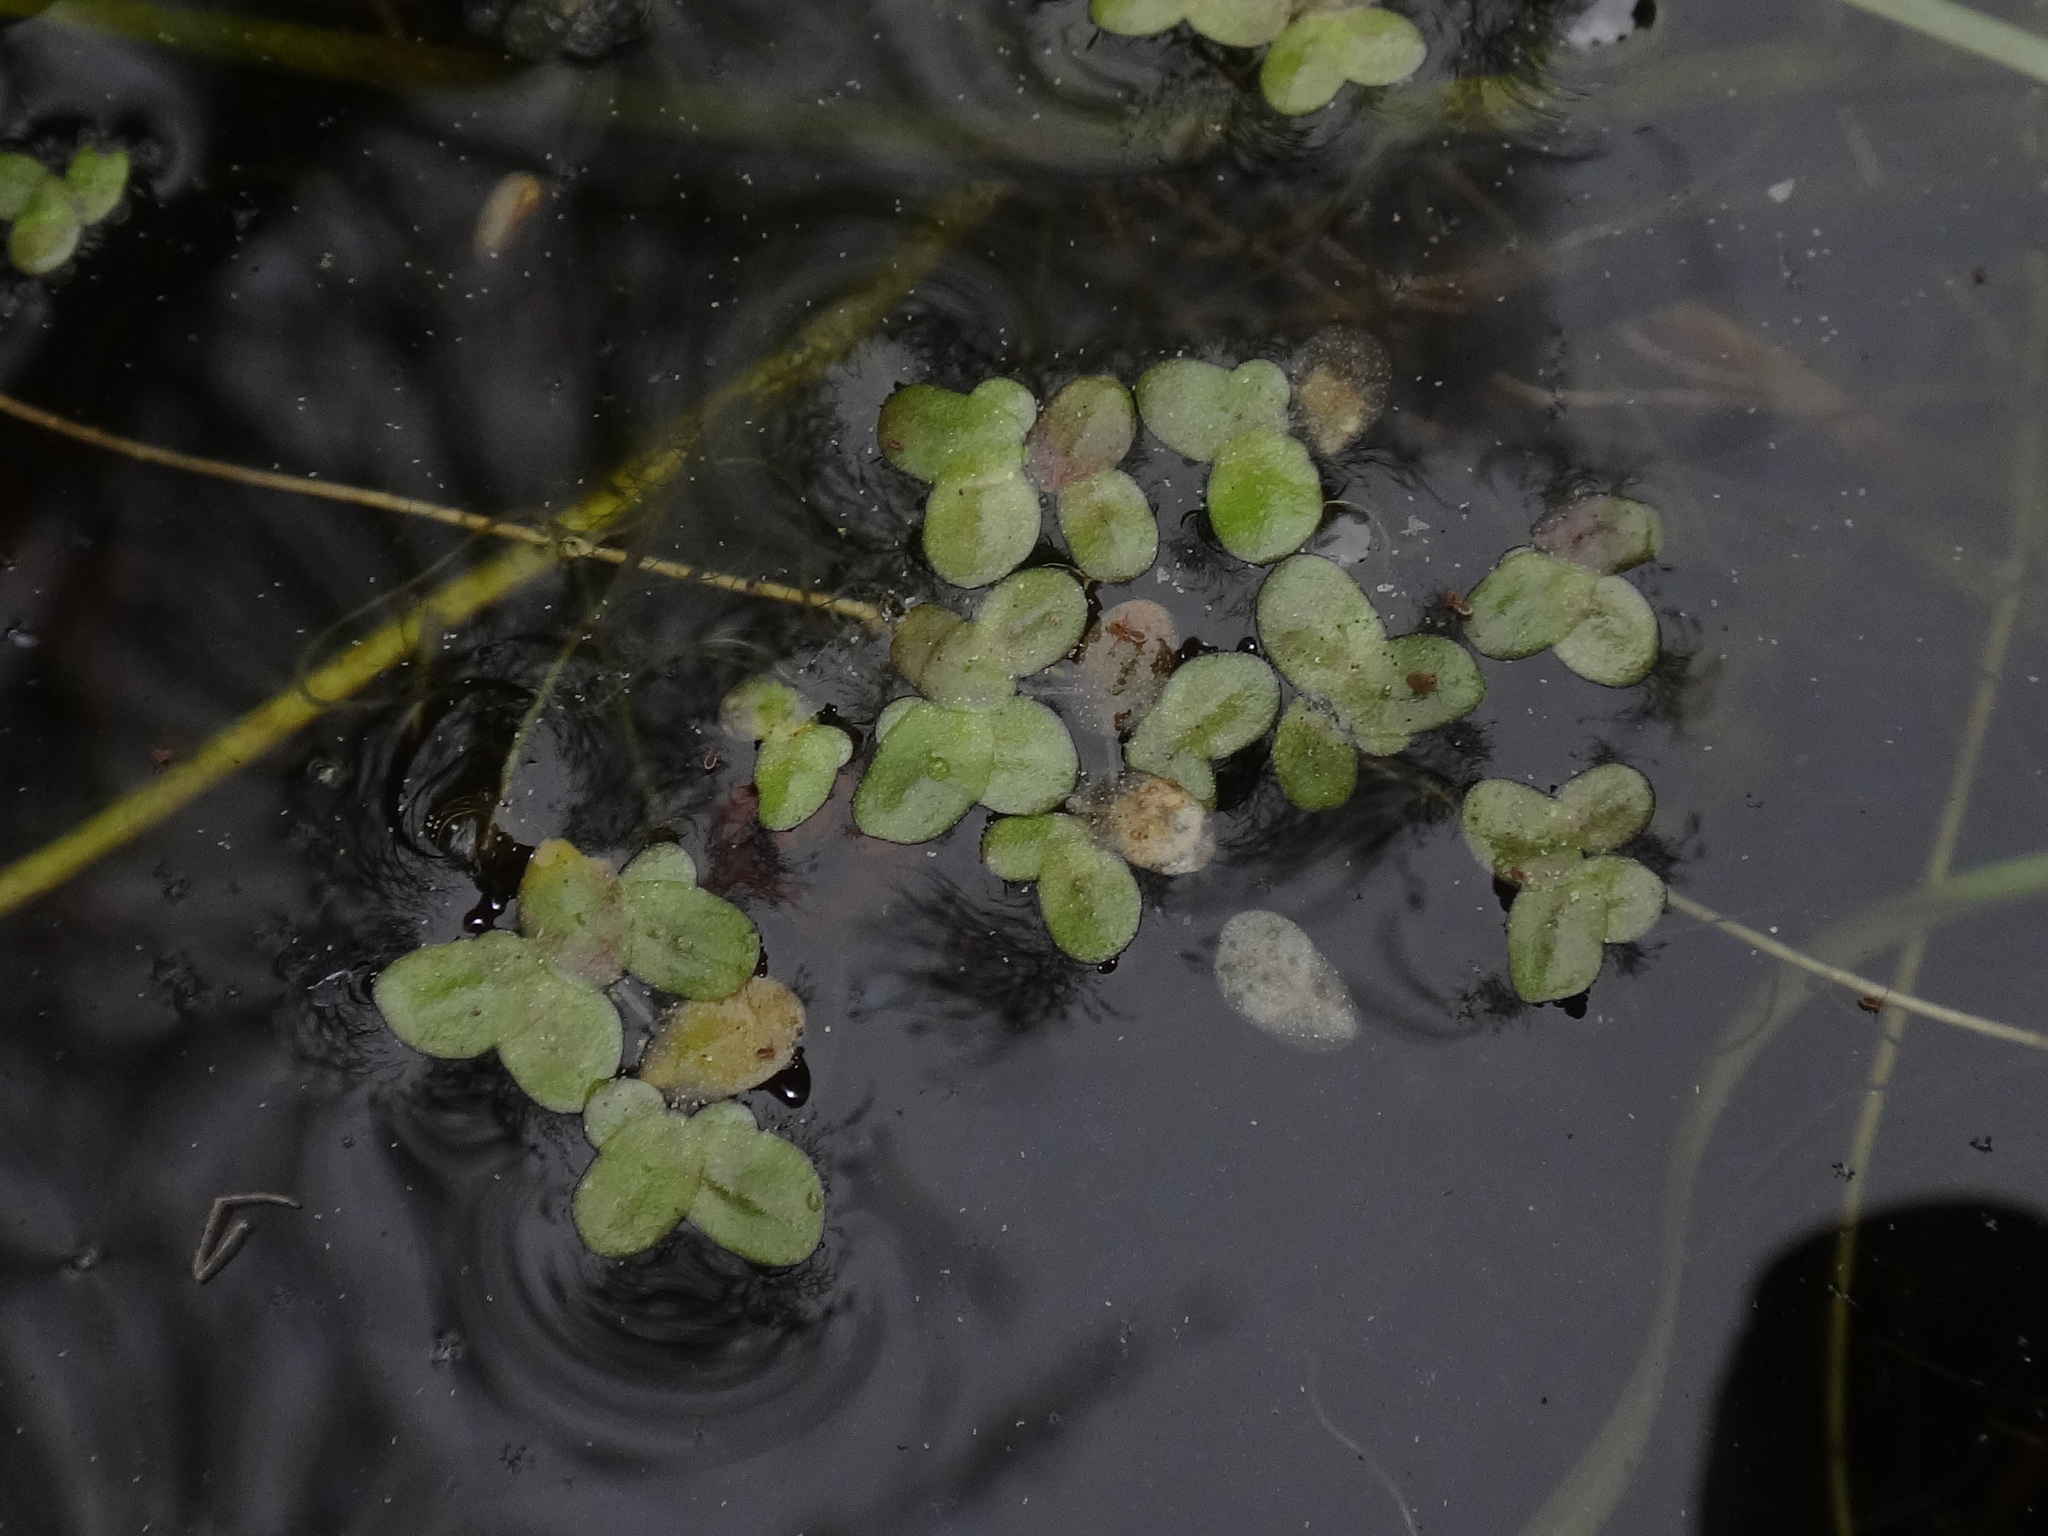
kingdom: Plantae
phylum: Tracheophyta
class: Liliopsida
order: Alismatales
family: Araceae
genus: Lemna
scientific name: Lemna minor
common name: Common duckweed
